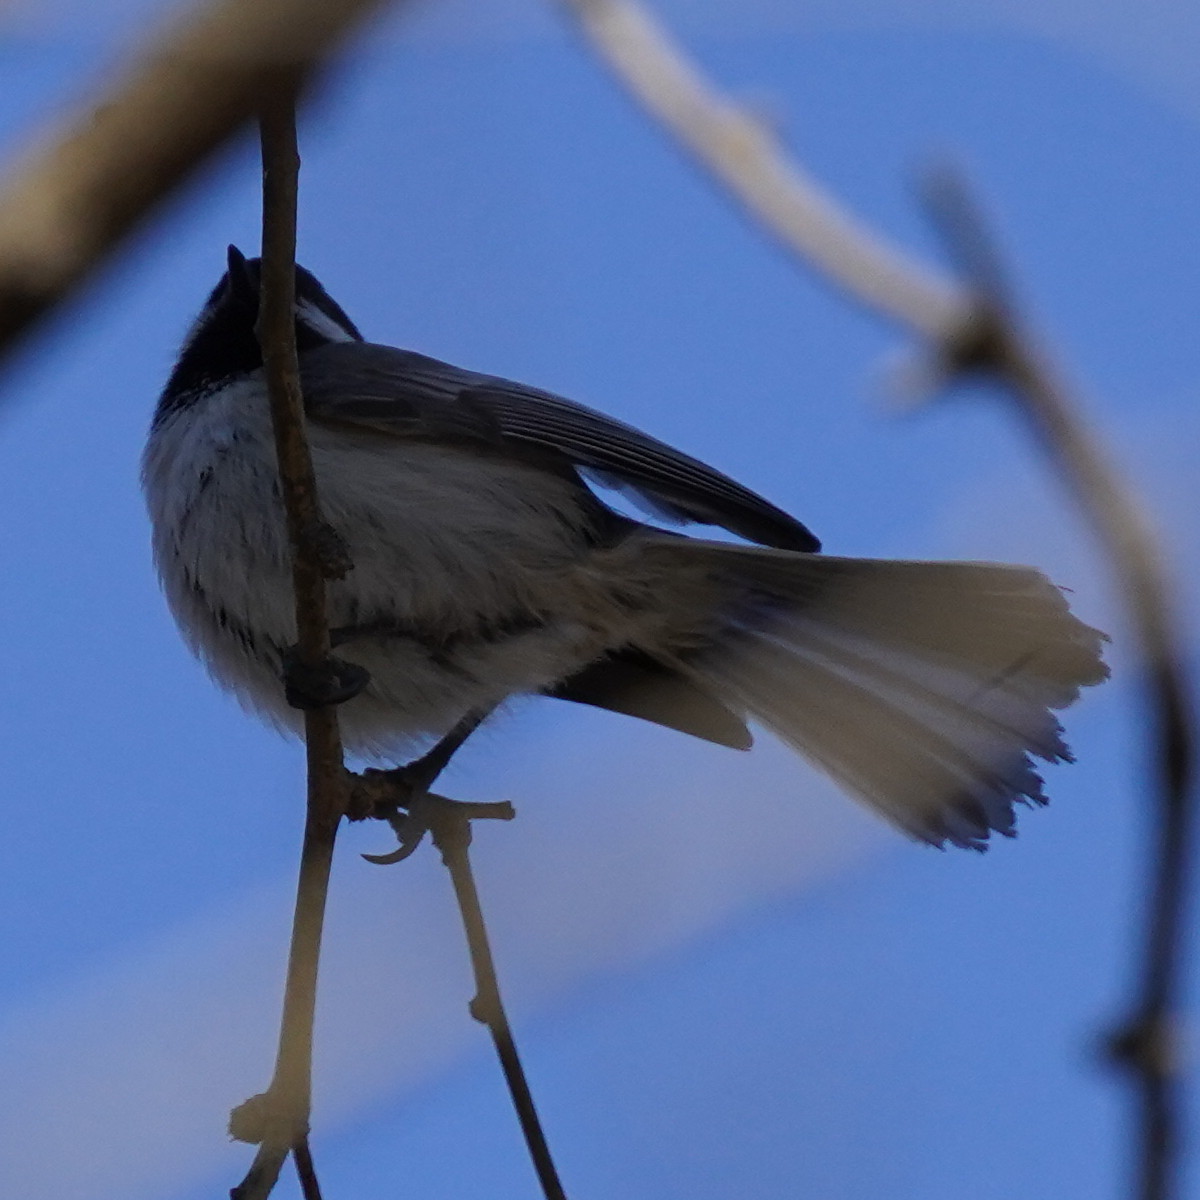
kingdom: Animalia
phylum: Chordata
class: Aves
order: Passeriformes
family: Paridae
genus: Poecile
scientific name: Poecile atricapillus
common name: Black-capped chickadee
